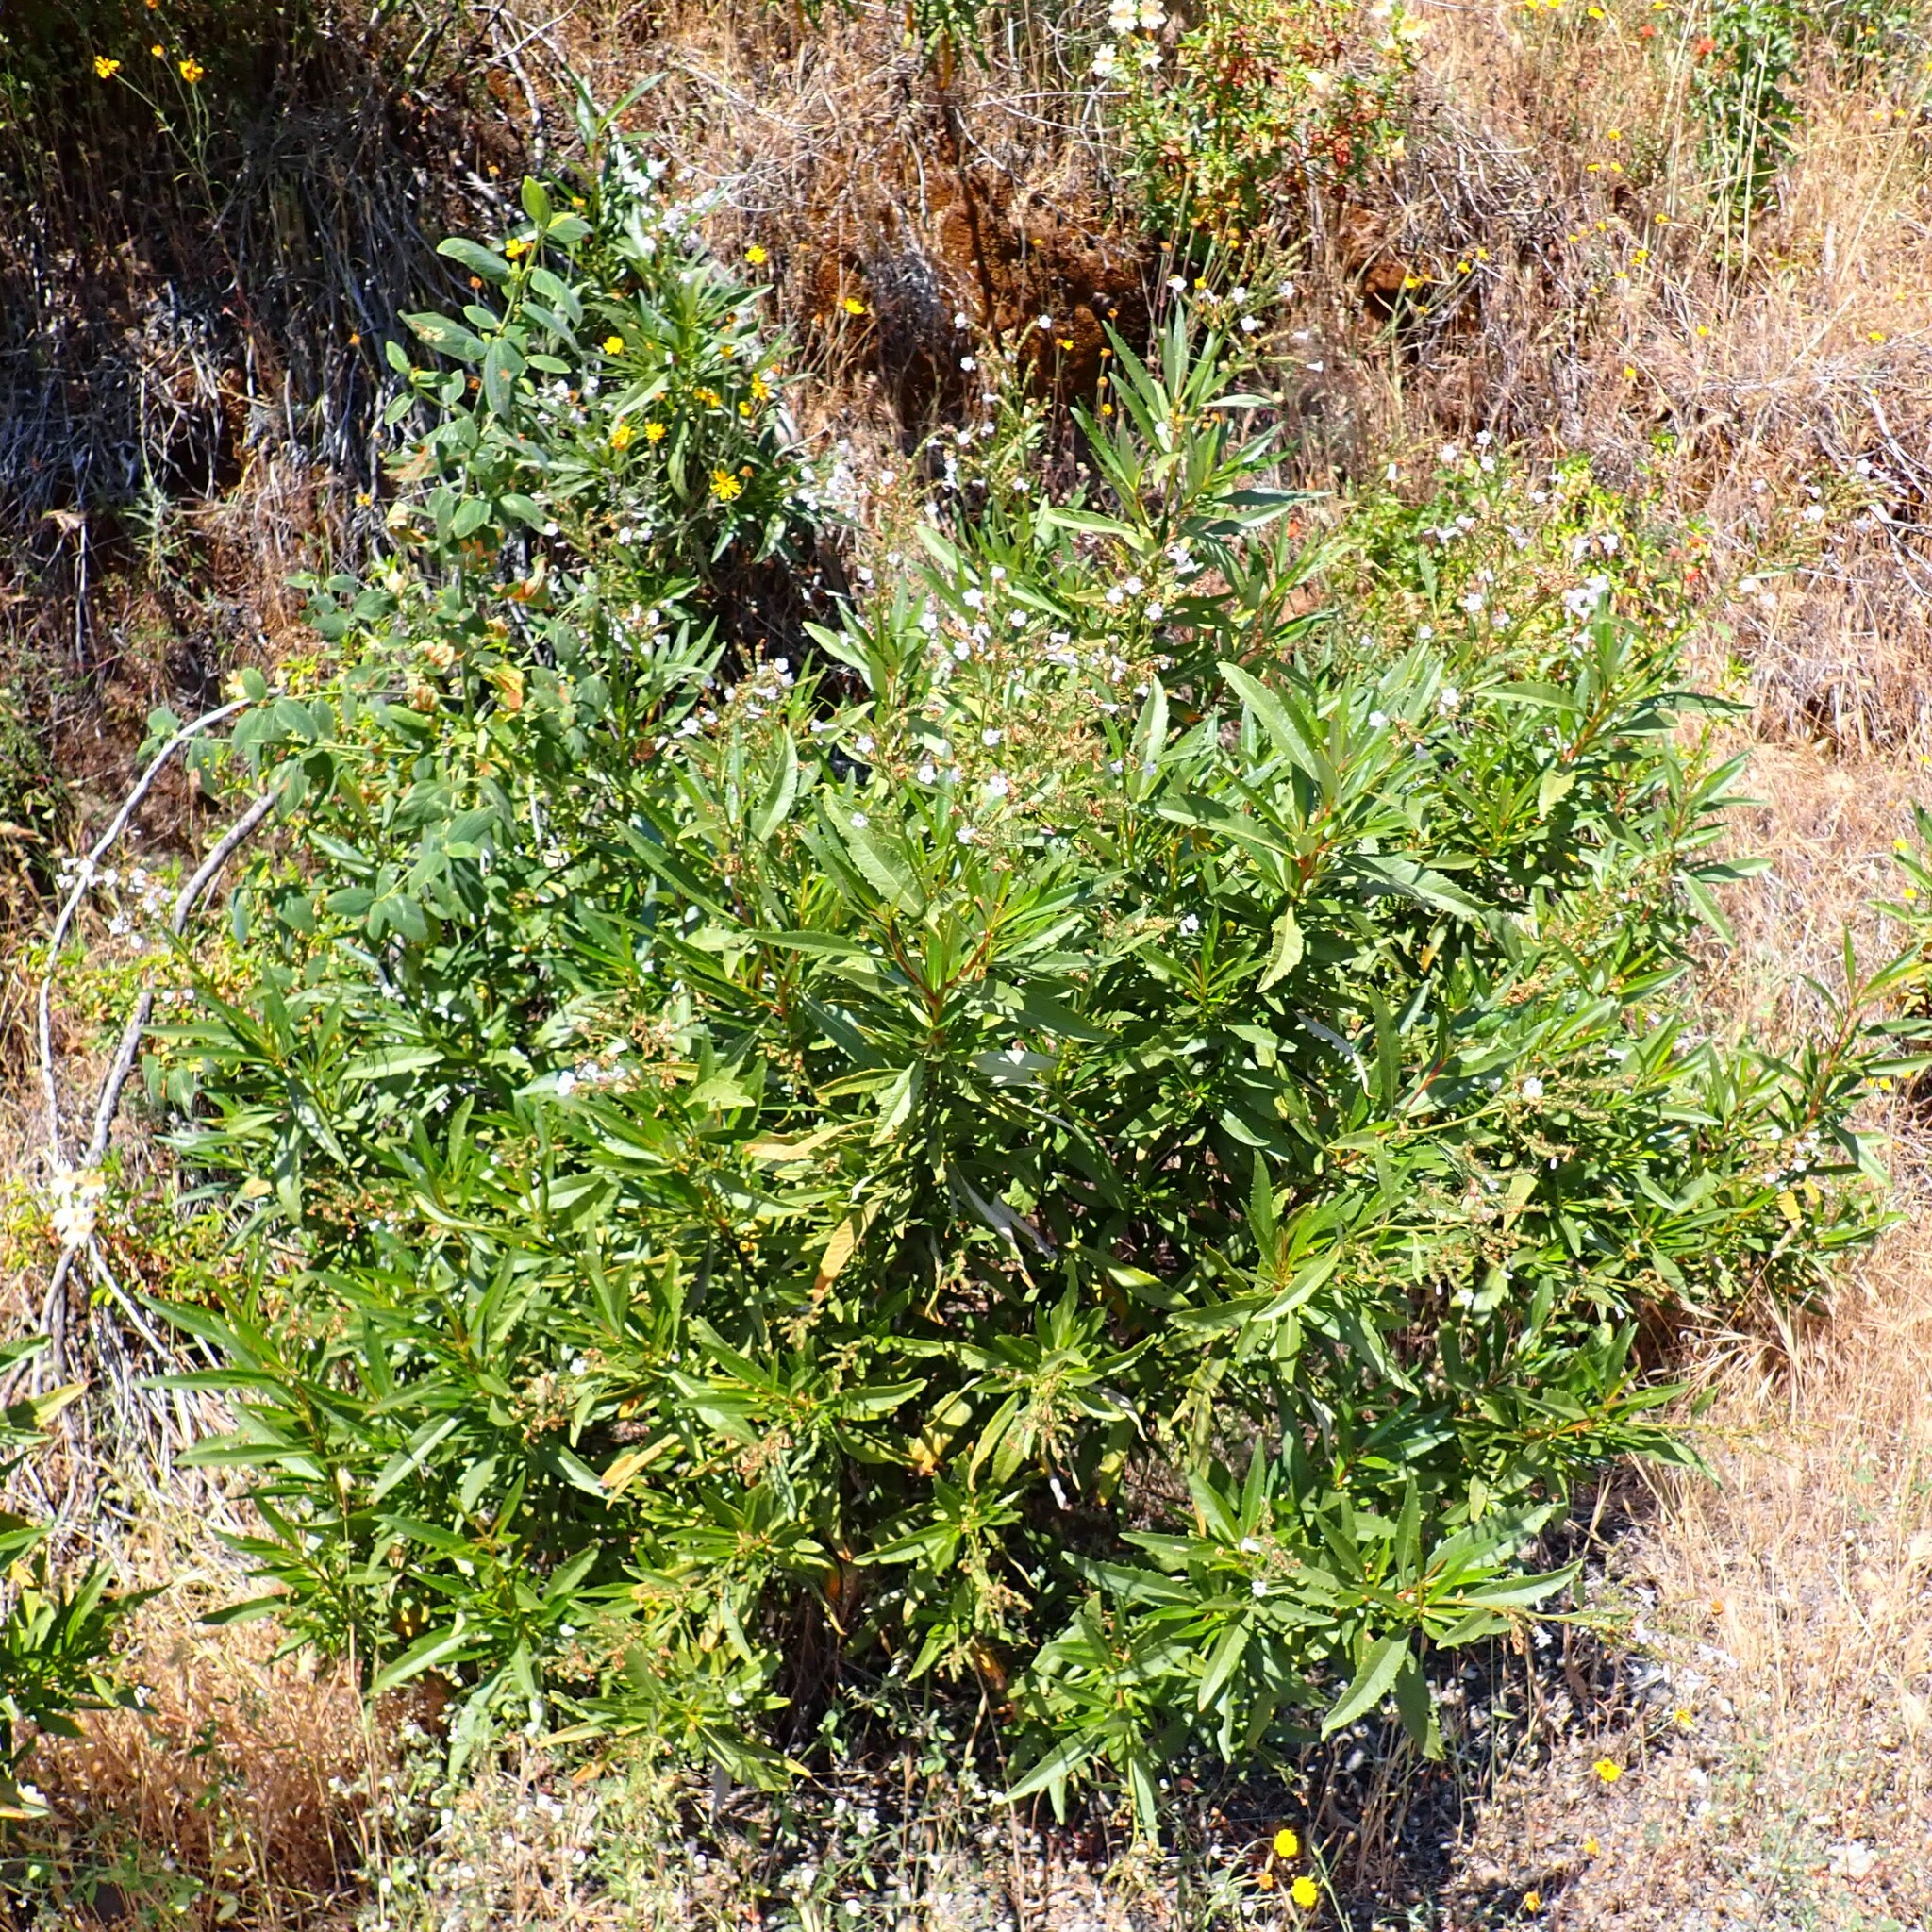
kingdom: Plantae
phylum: Tracheophyta
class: Magnoliopsida
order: Boraginales
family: Namaceae
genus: Eriodictyon
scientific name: Eriodictyon californicum
